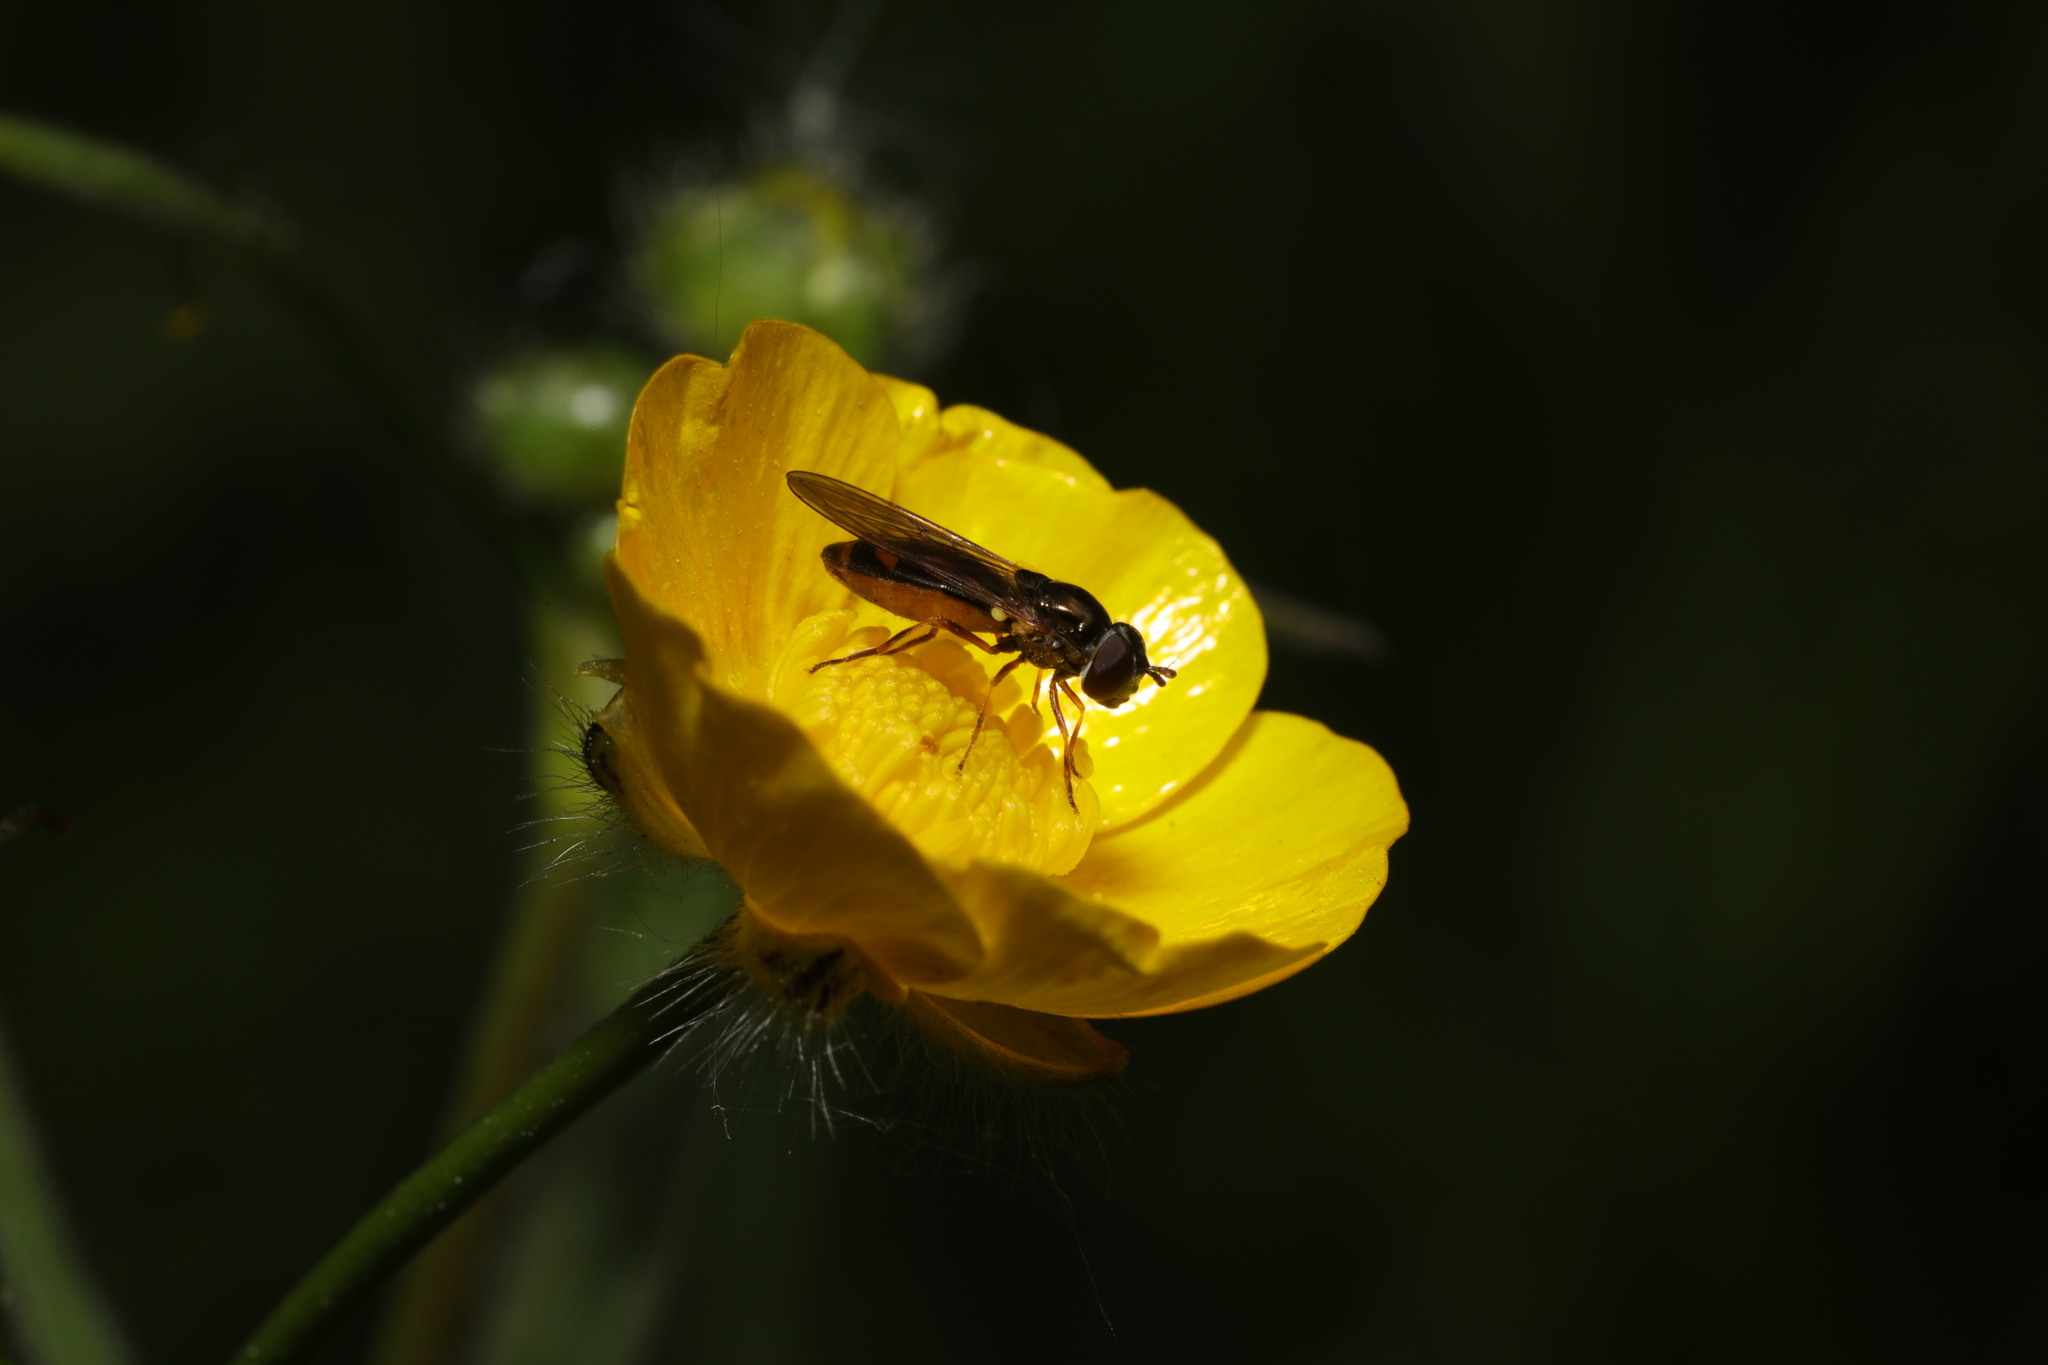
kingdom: Animalia
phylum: Arthropoda
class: Insecta
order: Diptera
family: Syrphidae
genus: Melanostoma
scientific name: Melanostoma mellina
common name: Hover fly
